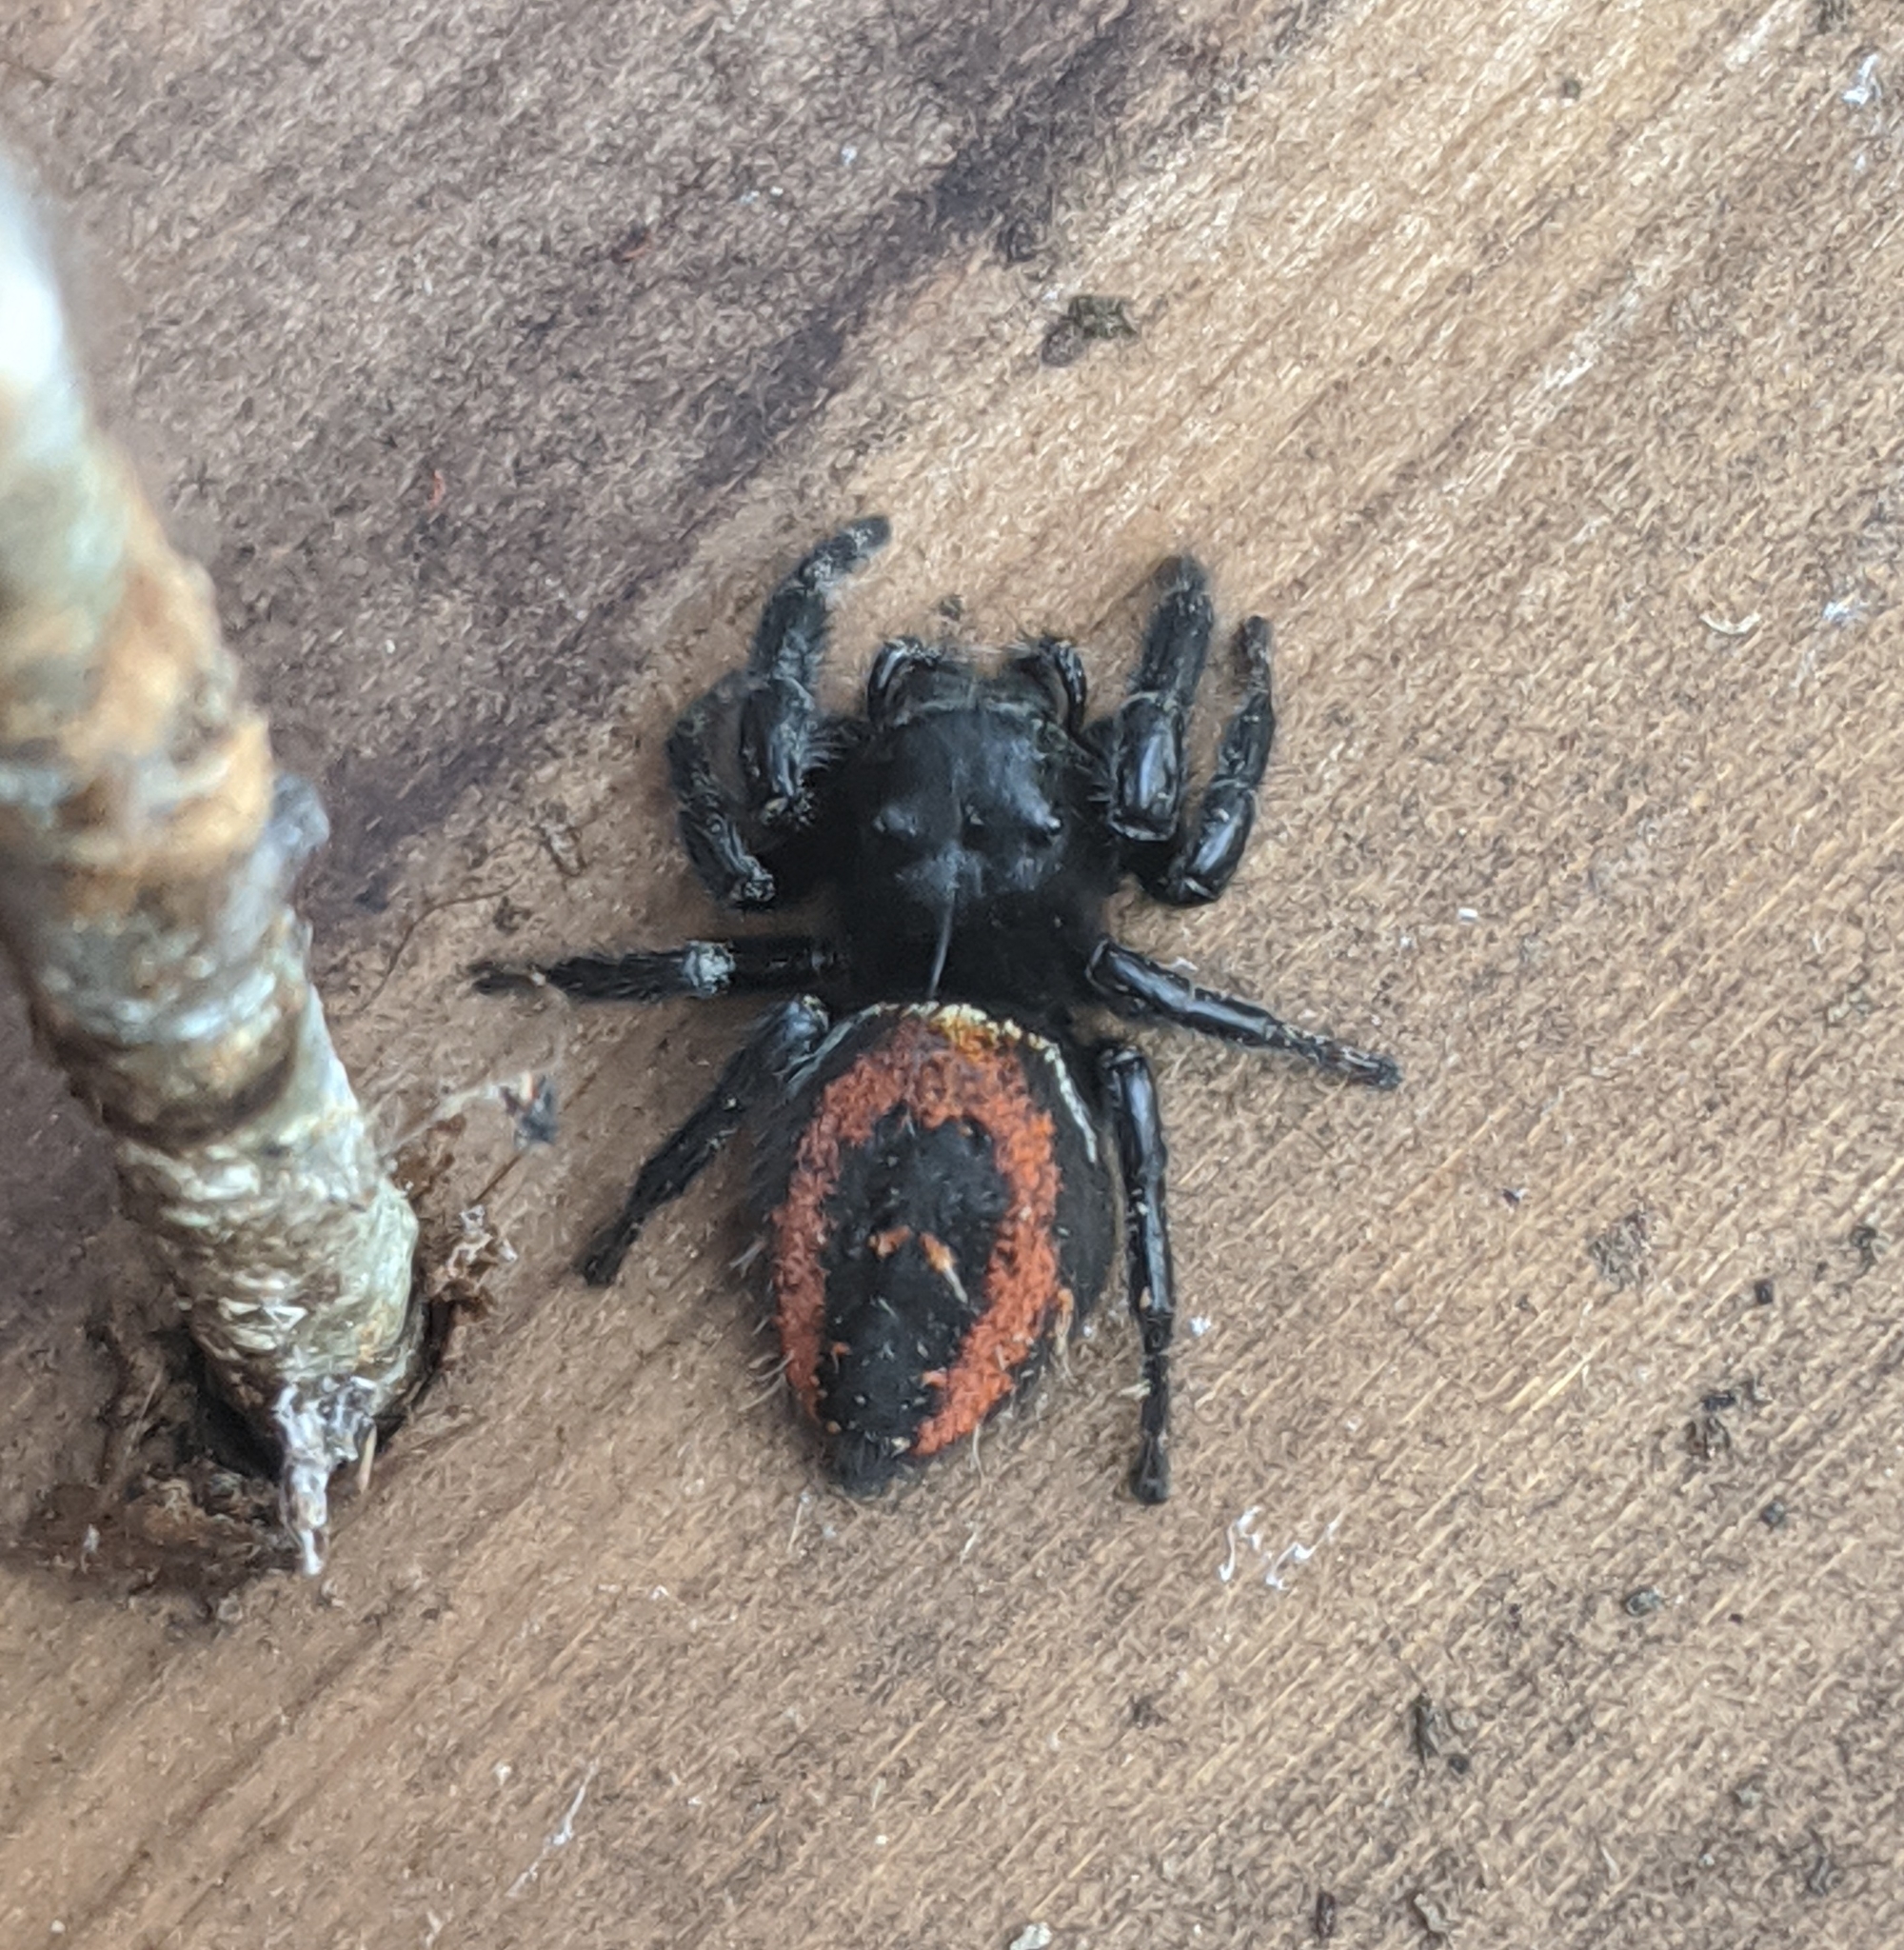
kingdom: Animalia
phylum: Arthropoda
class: Arachnida
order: Araneae
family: Salticidae
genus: Phidippus
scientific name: Phidippus johnsoni
